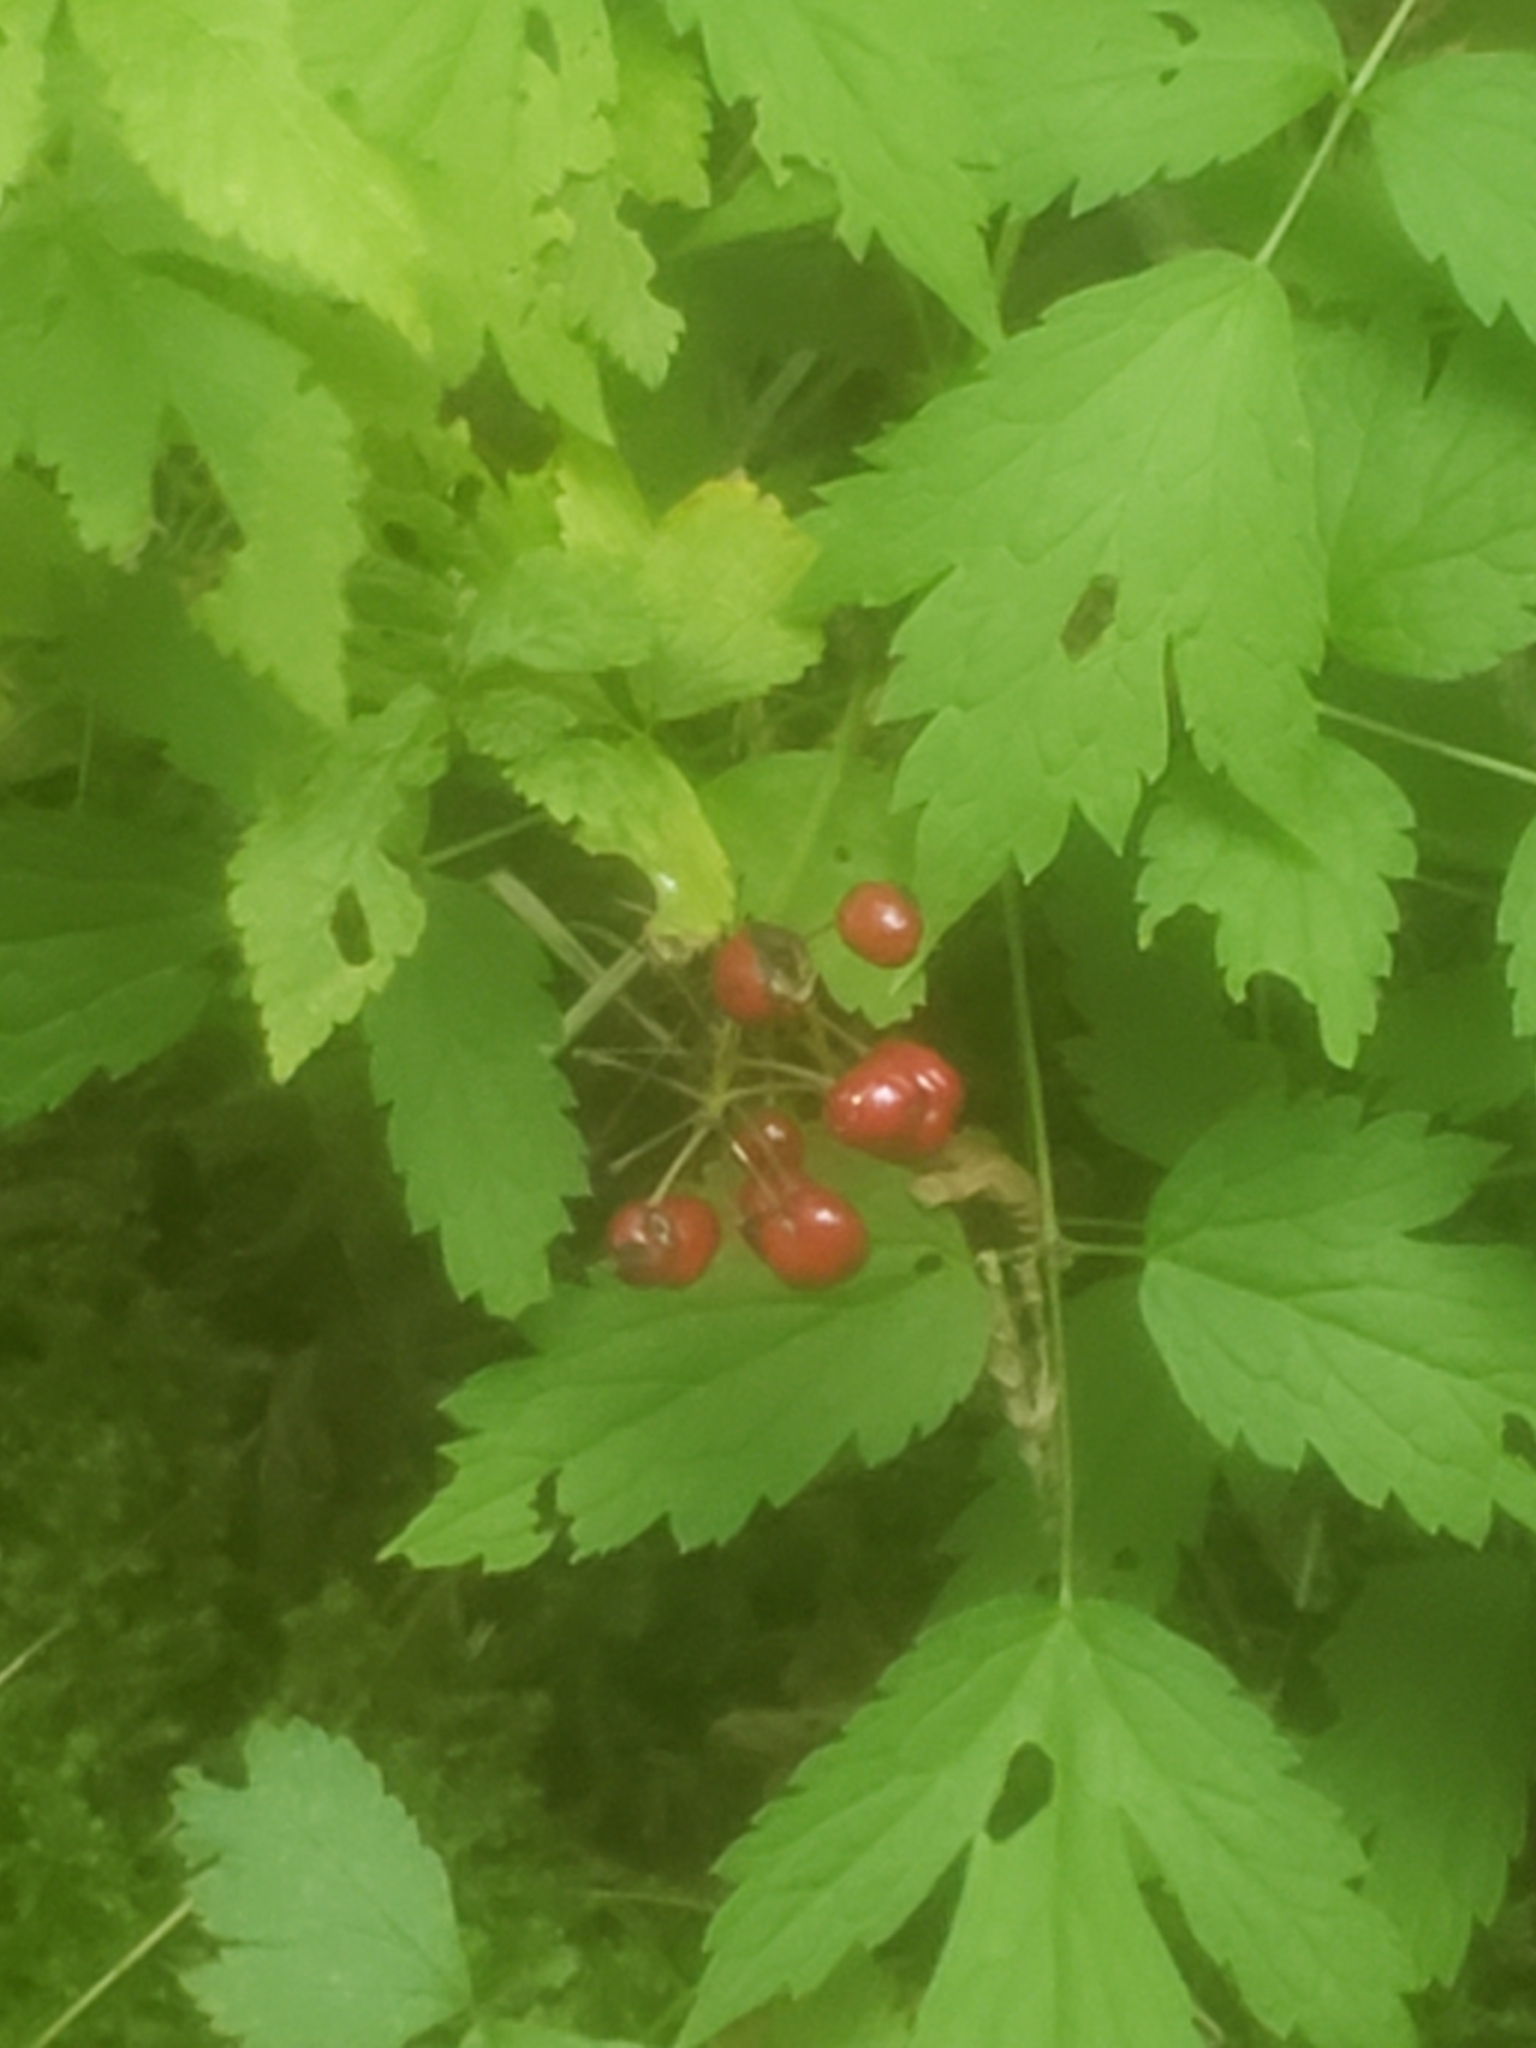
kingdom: Plantae
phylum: Tracheophyta
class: Magnoliopsida
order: Ranunculales
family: Ranunculaceae
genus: Actaea
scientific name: Actaea rubra
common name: Red baneberry
